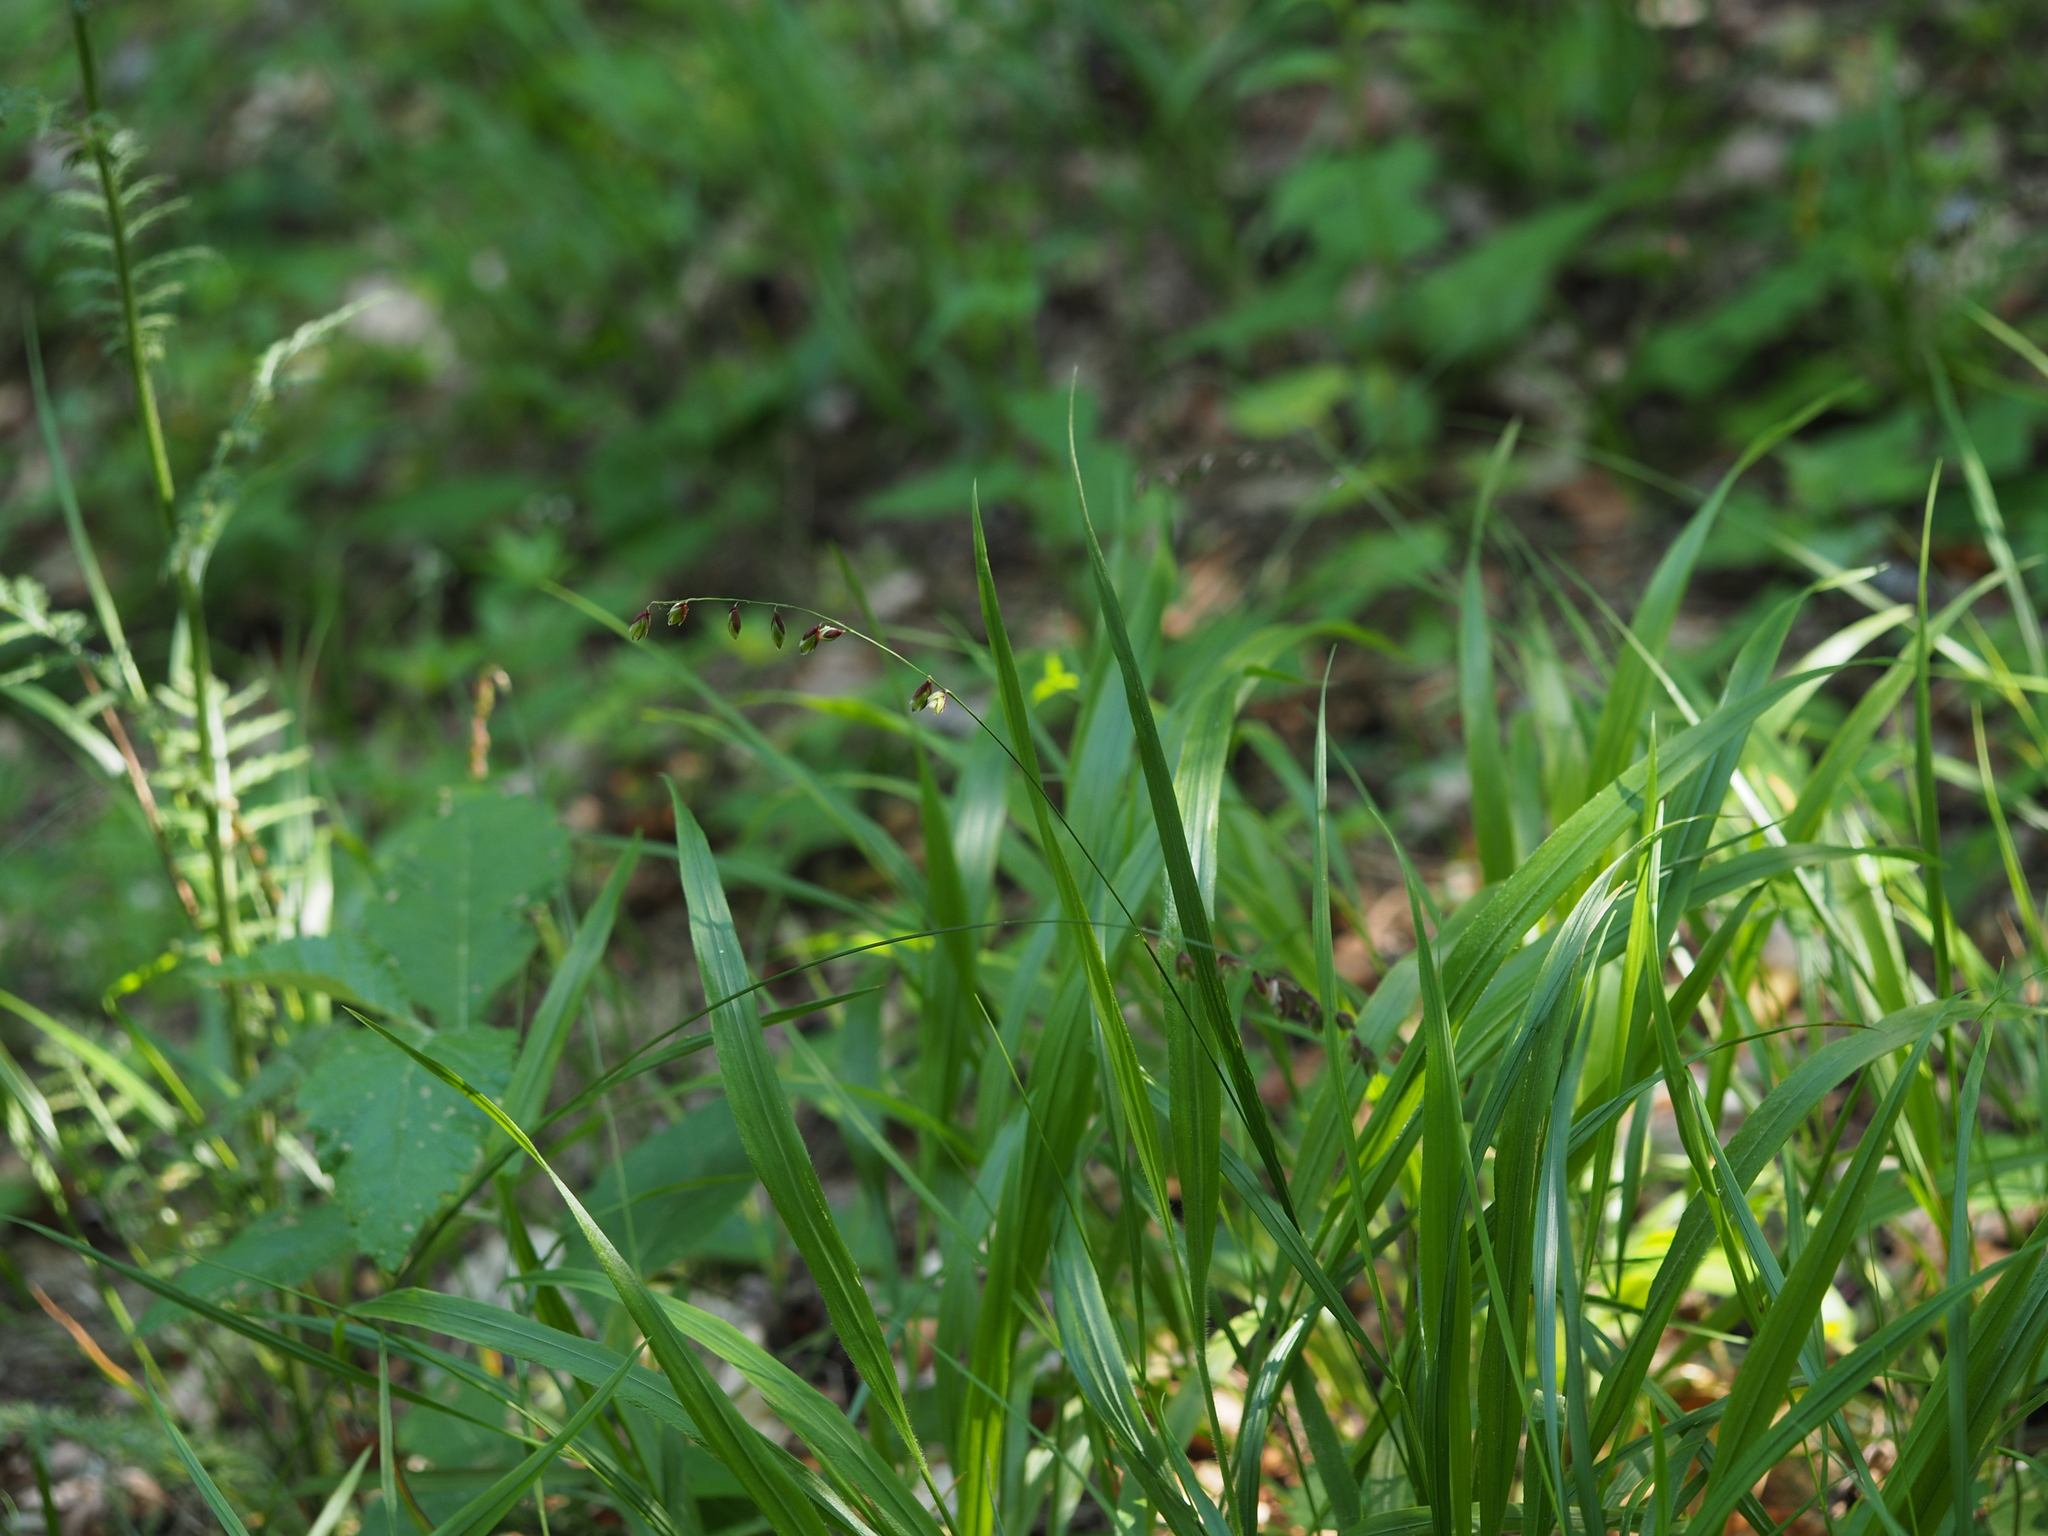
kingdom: Plantae
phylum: Tracheophyta
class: Liliopsida
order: Poales
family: Poaceae
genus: Melica
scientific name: Melica nutans
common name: Mountain melick
